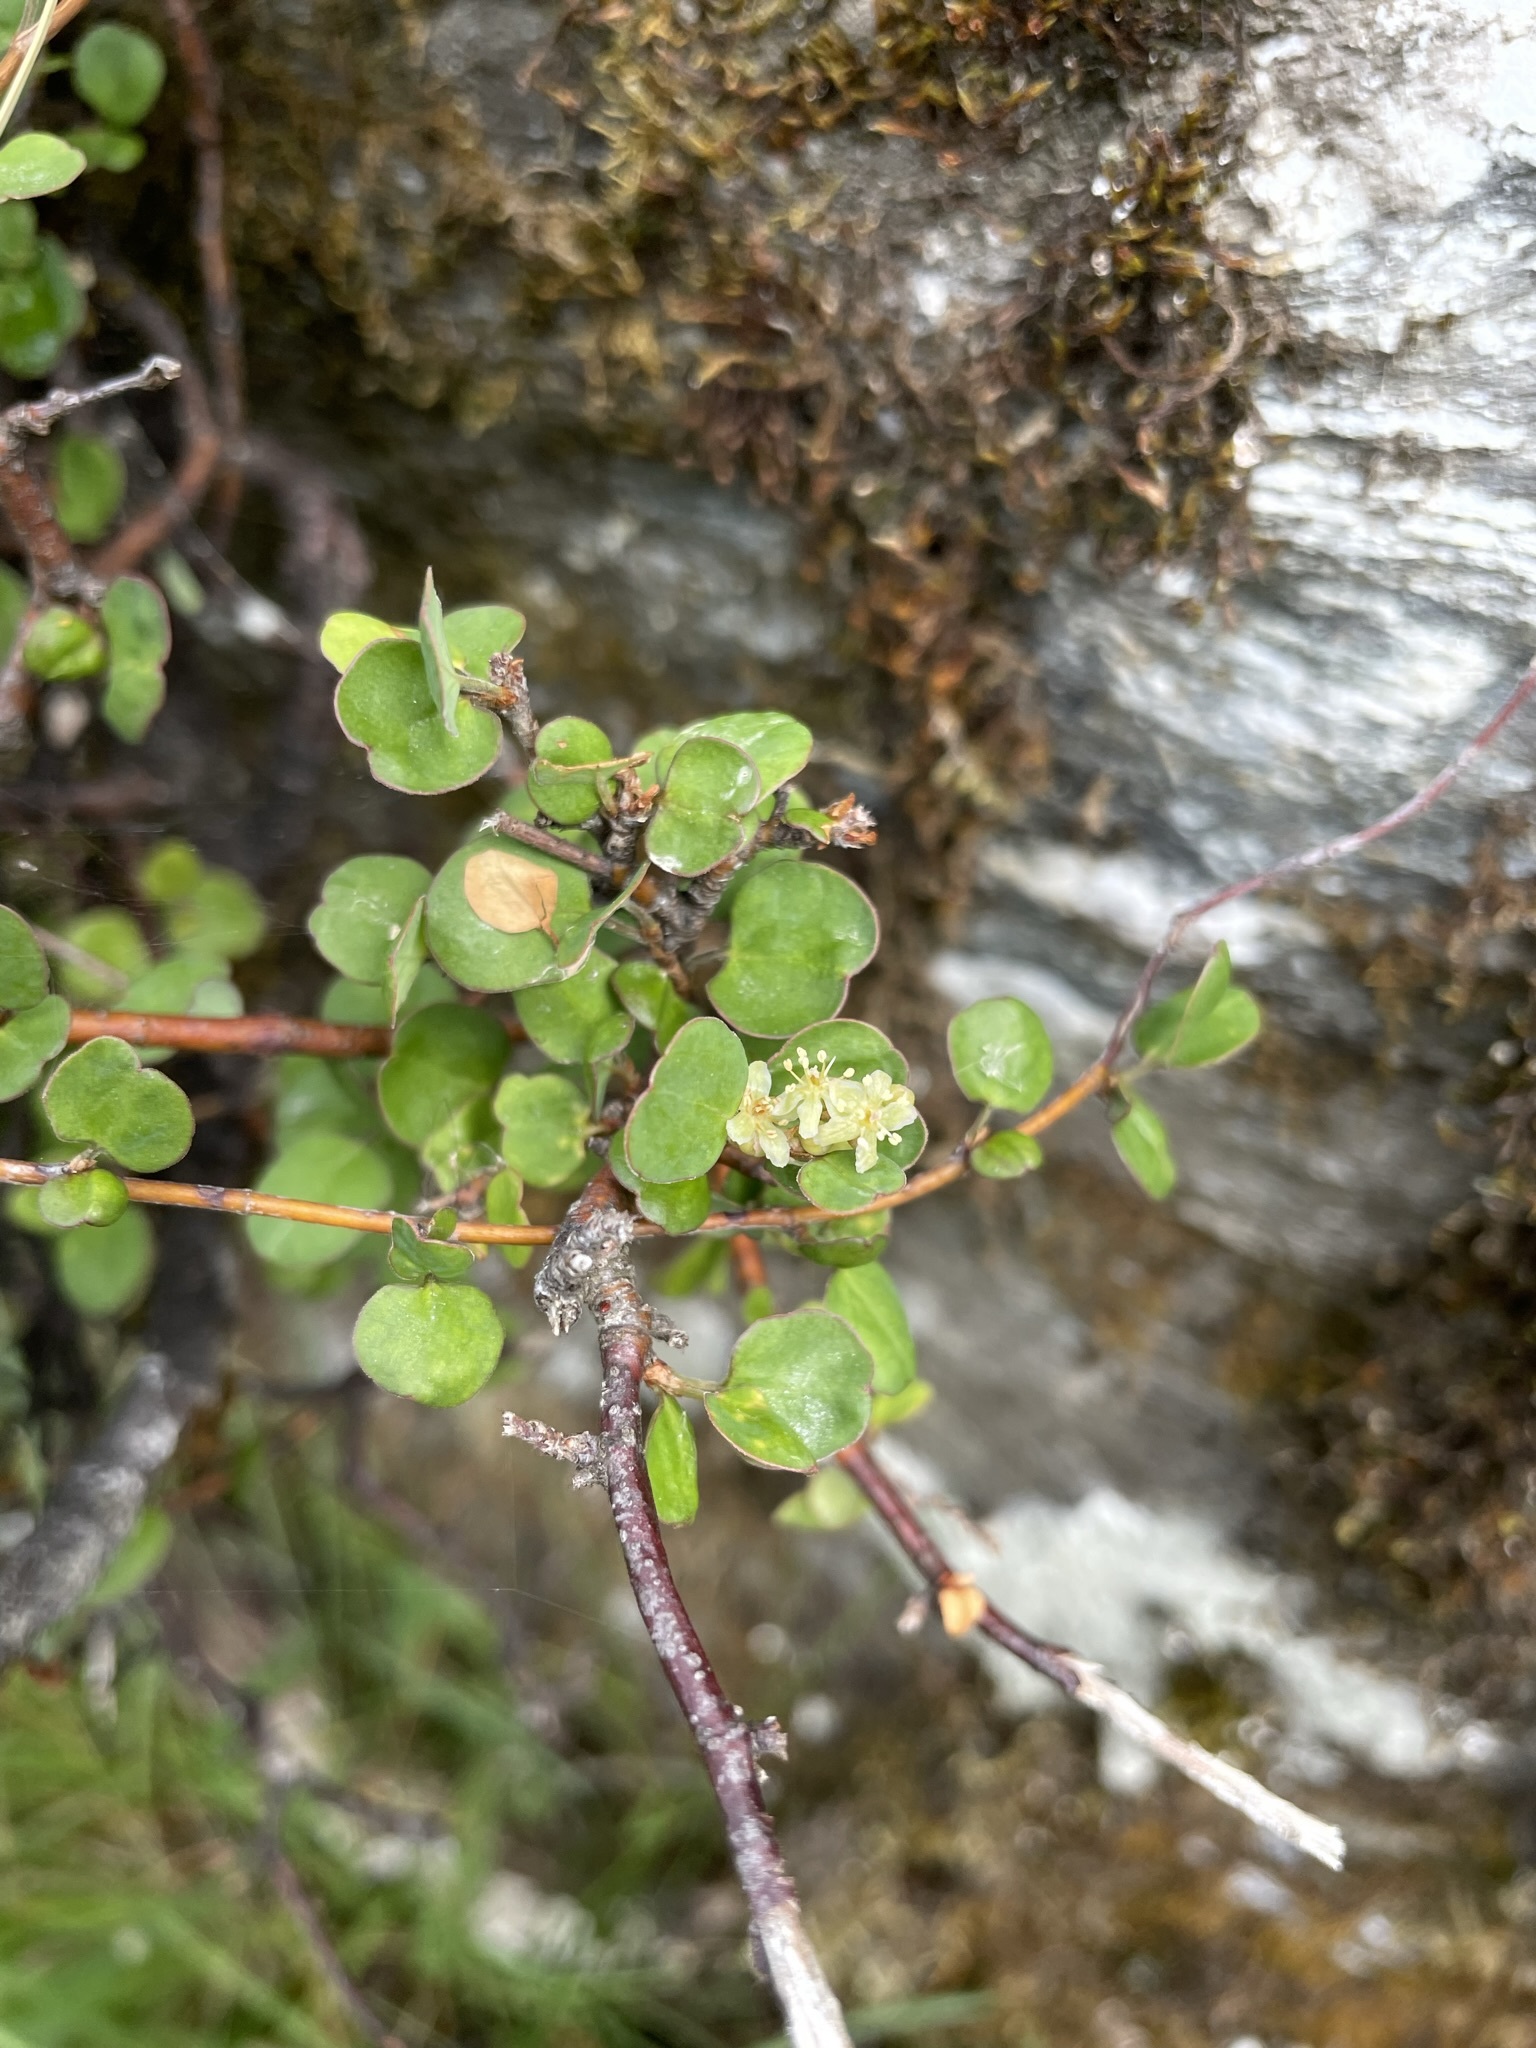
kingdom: Plantae
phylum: Tracheophyta
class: Magnoliopsida
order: Caryophyllales
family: Polygonaceae
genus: Muehlenbeckia
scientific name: Muehlenbeckia complexa
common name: Wireplant
